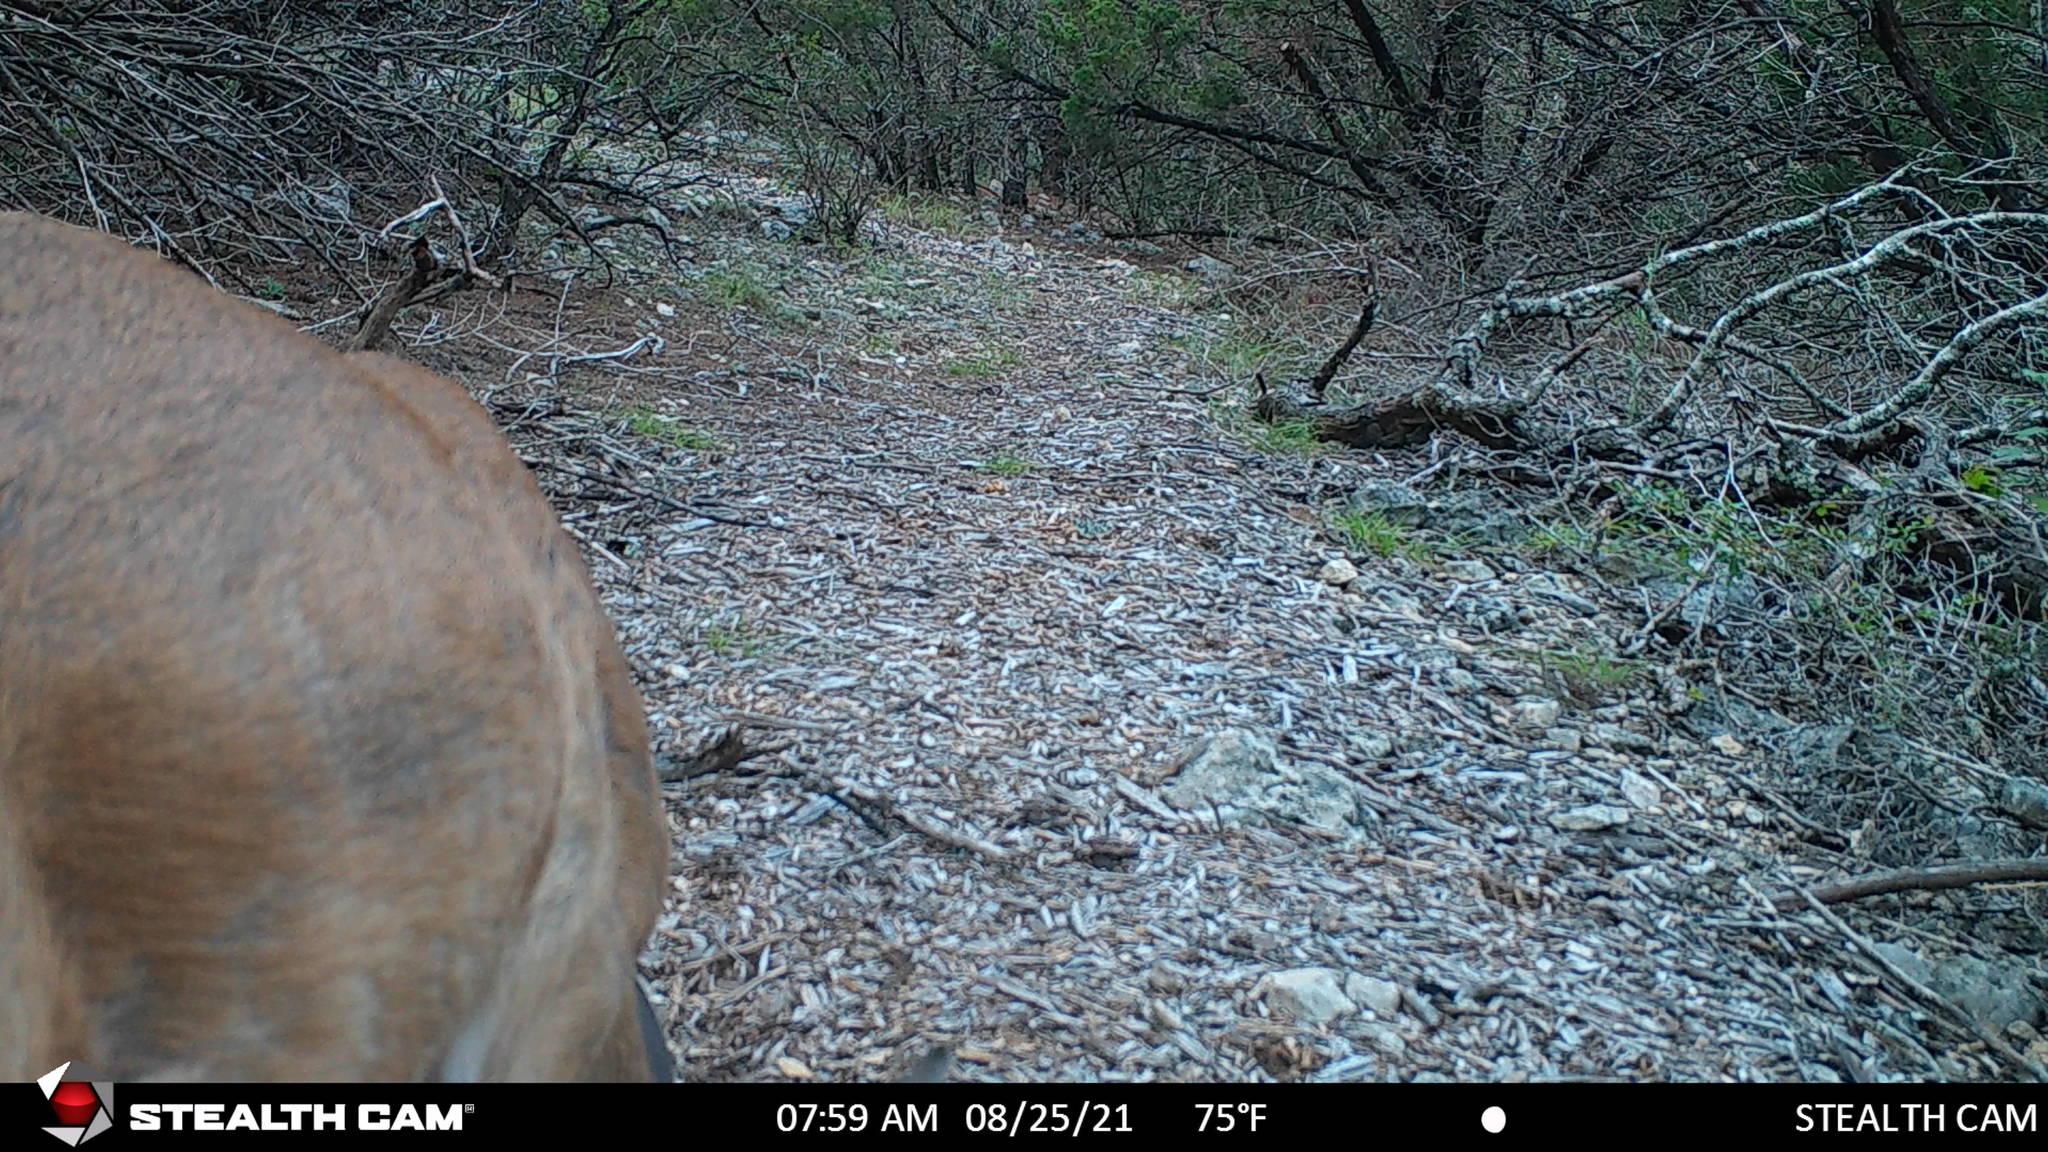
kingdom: Animalia
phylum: Chordata
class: Mammalia
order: Artiodactyla
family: Cervidae
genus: Odocoileus
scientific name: Odocoileus virginianus
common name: White-tailed deer
